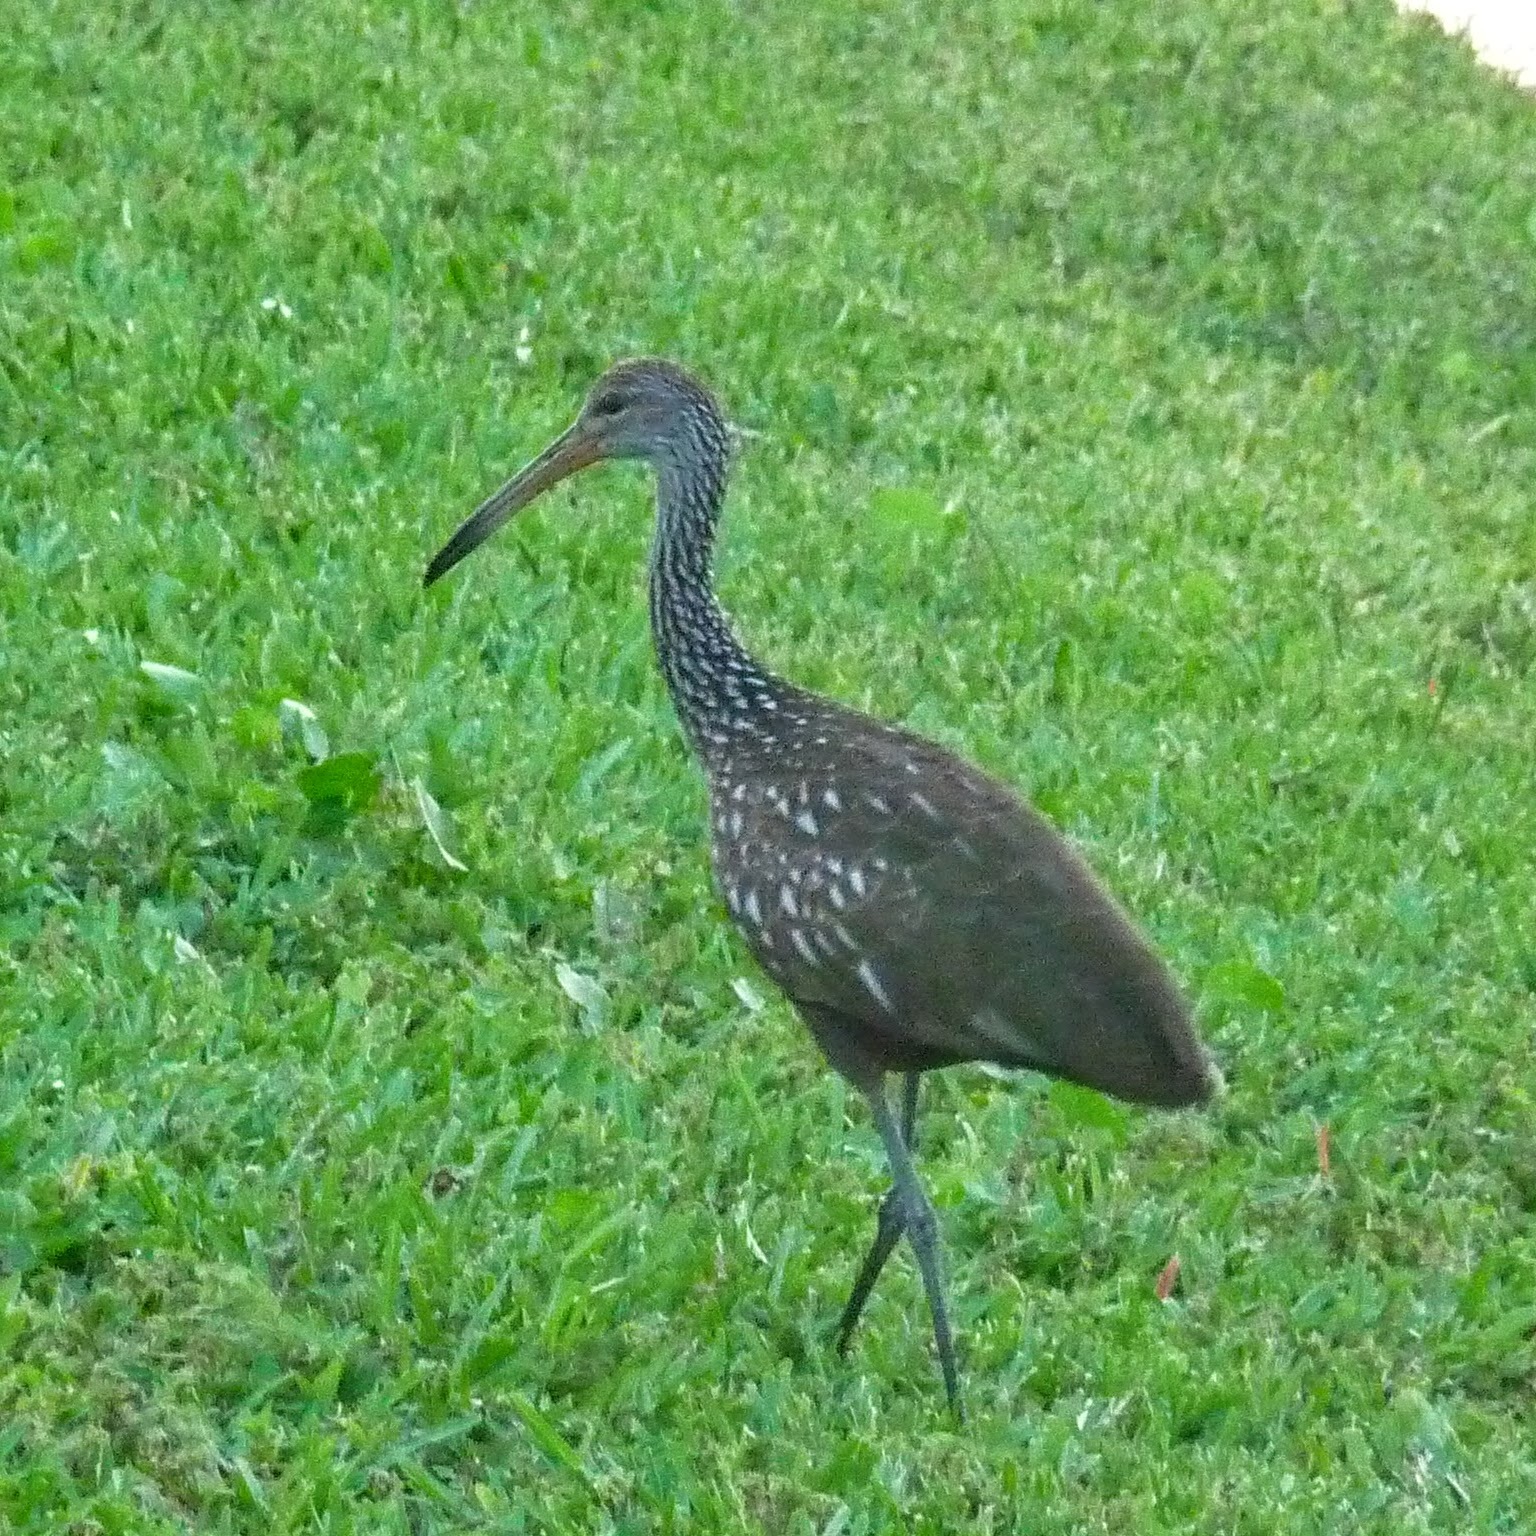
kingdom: Animalia
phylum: Chordata
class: Aves
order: Gruiformes
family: Aramidae
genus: Aramus
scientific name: Aramus guarauna
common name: Limpkin
